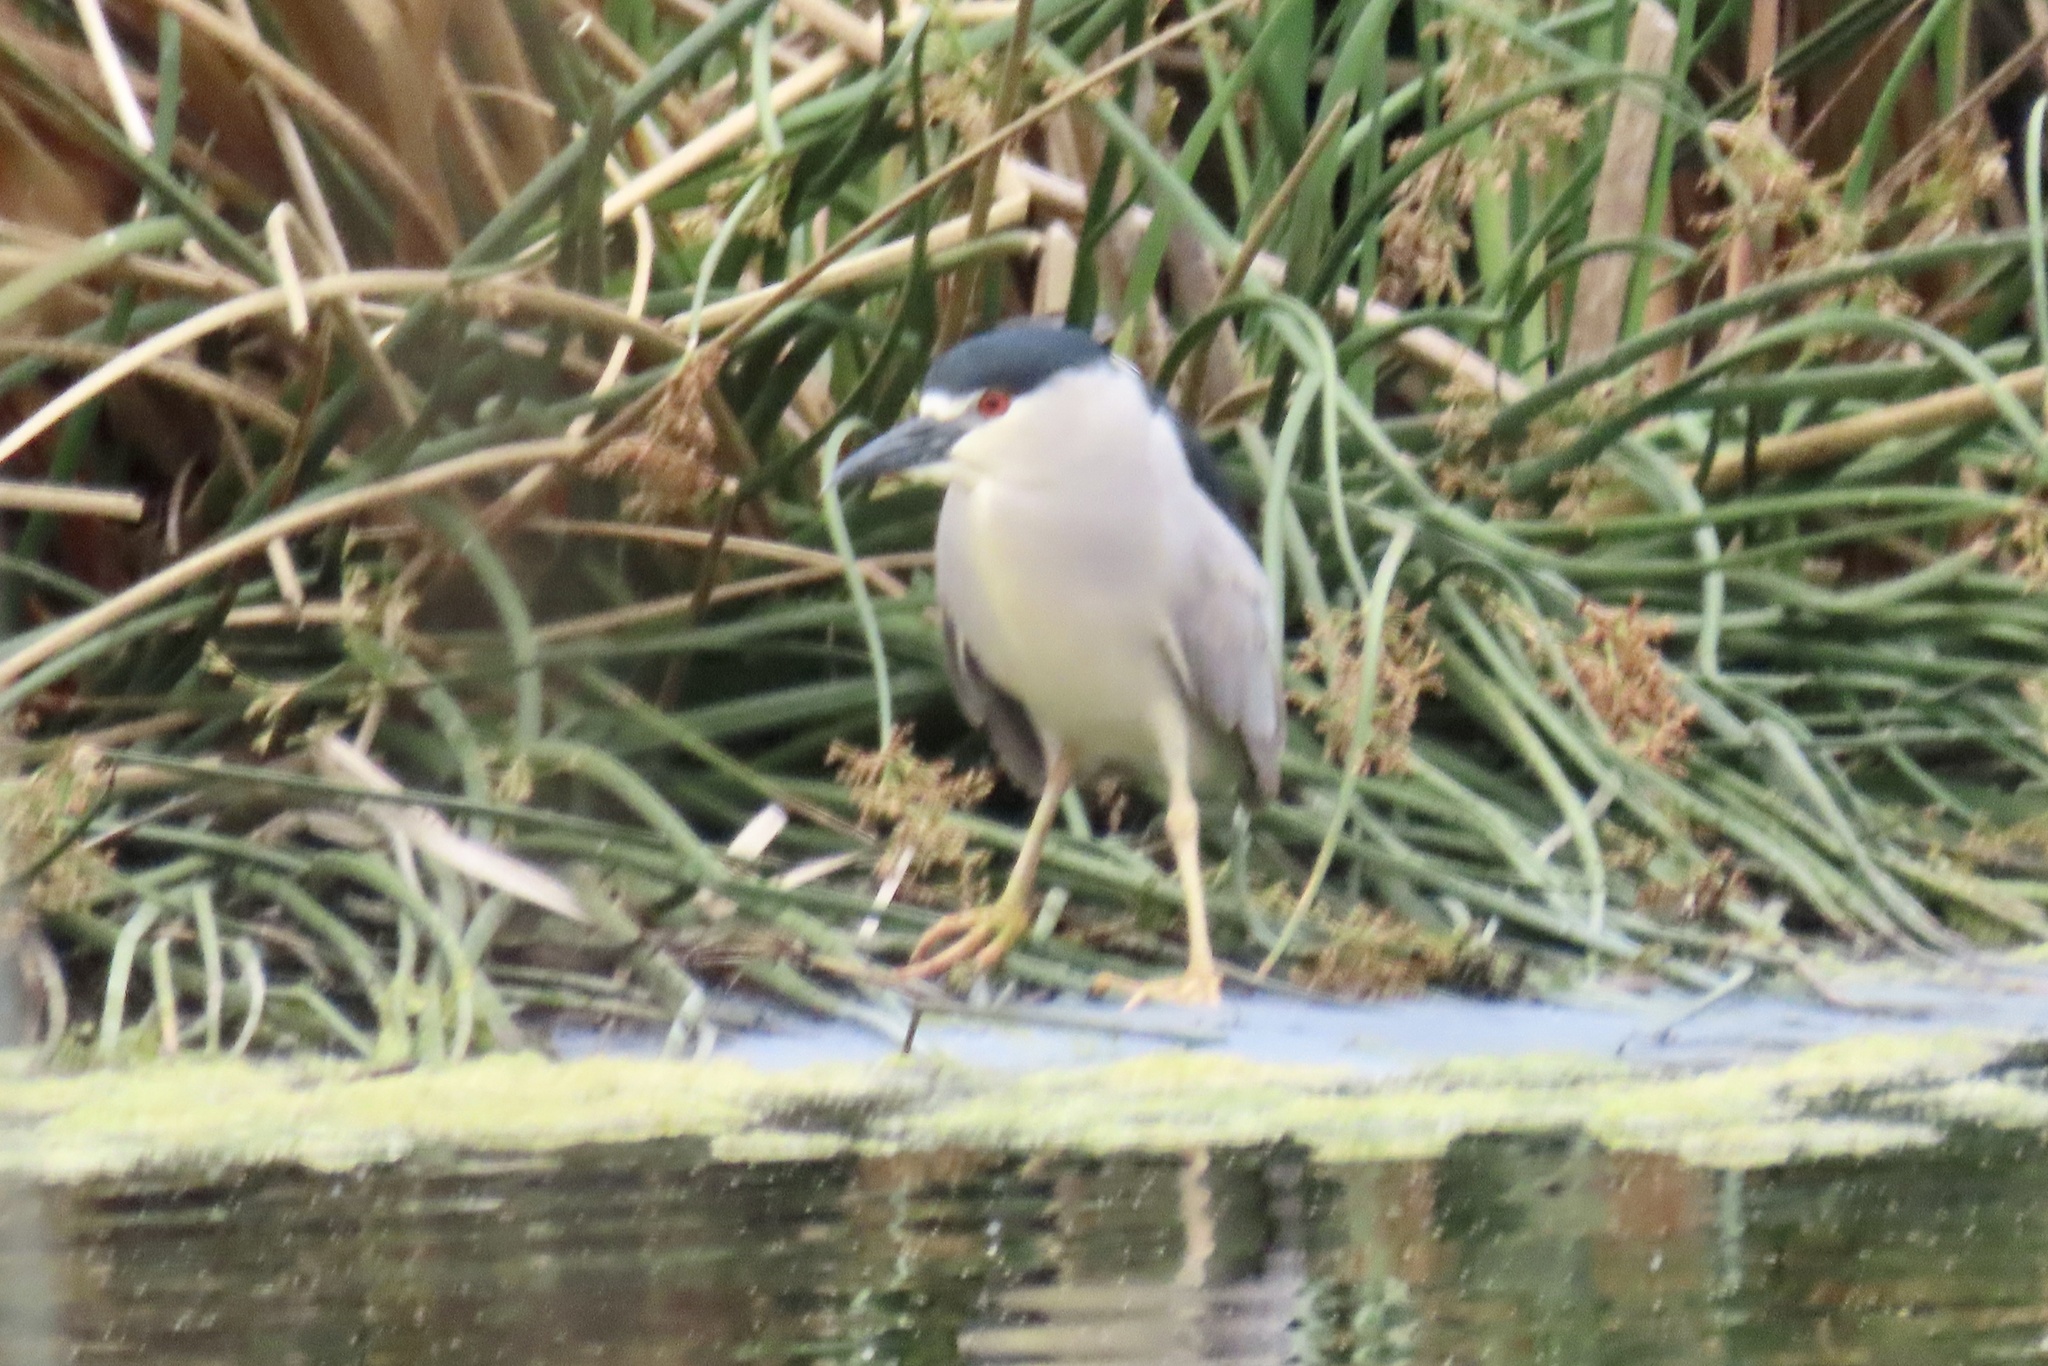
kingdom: Animalia
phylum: Chordata
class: Aves
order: Pelecaniformes
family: Ardeidae
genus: Nycticorax
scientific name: Nycticorax nycticorax
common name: Black-crowned night heron
